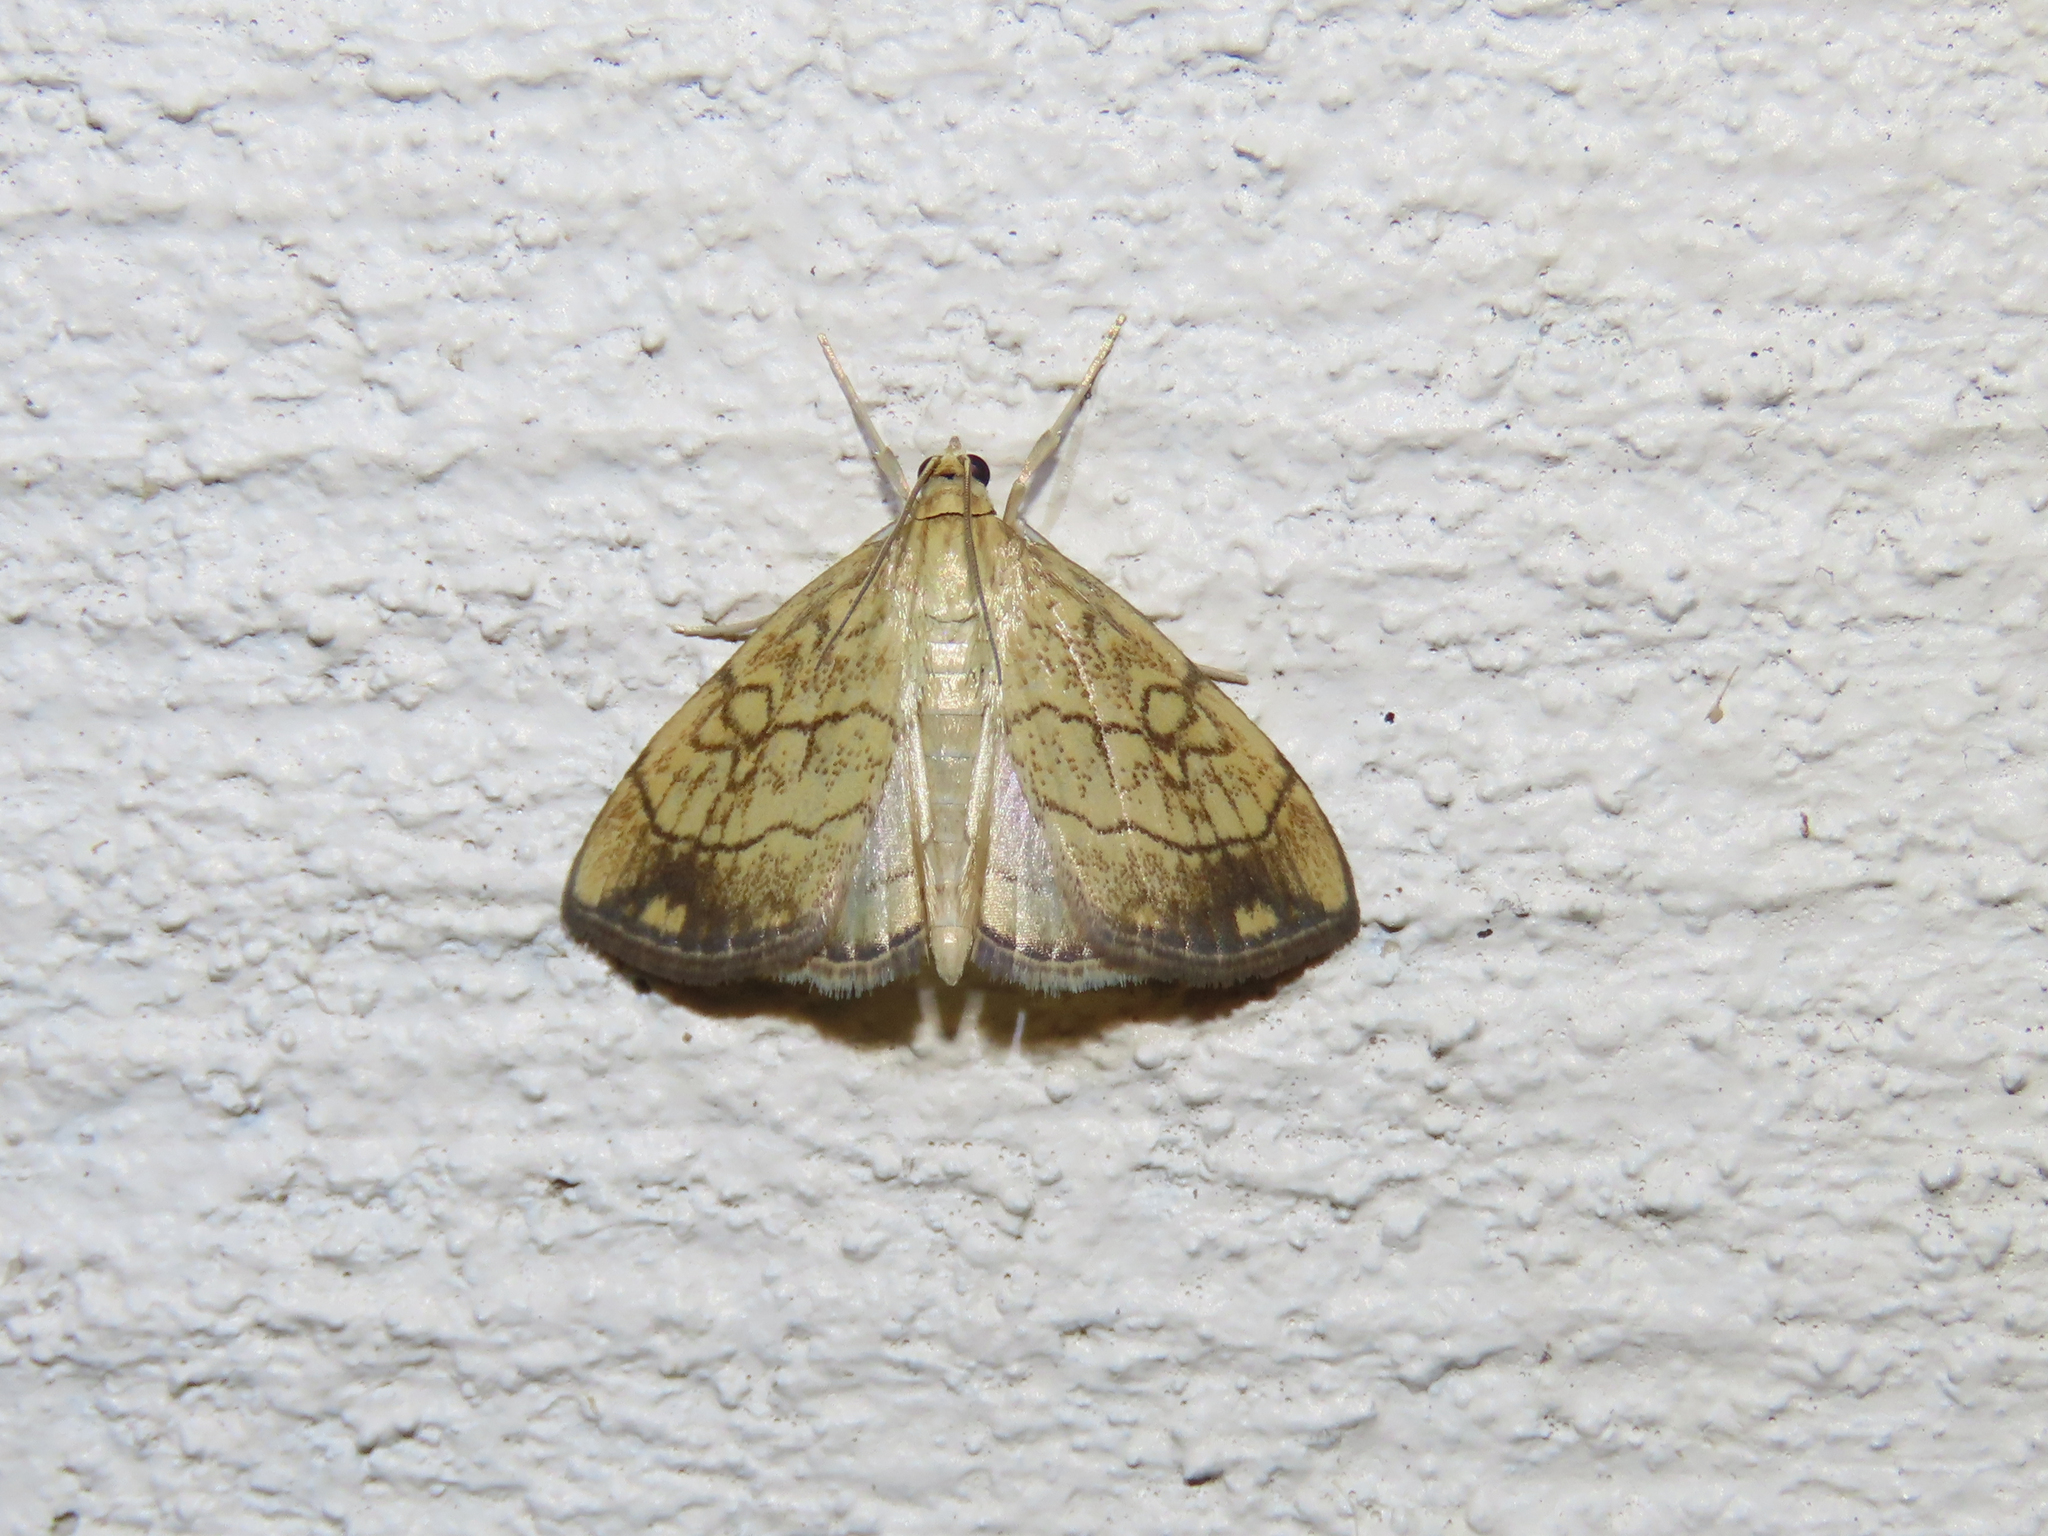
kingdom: Animalia
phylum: Arthropoda
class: Insecta
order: Lepidoptera
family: Crambidae
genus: Evergestis
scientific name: Evergestis pallidata
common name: Chequered pearl
